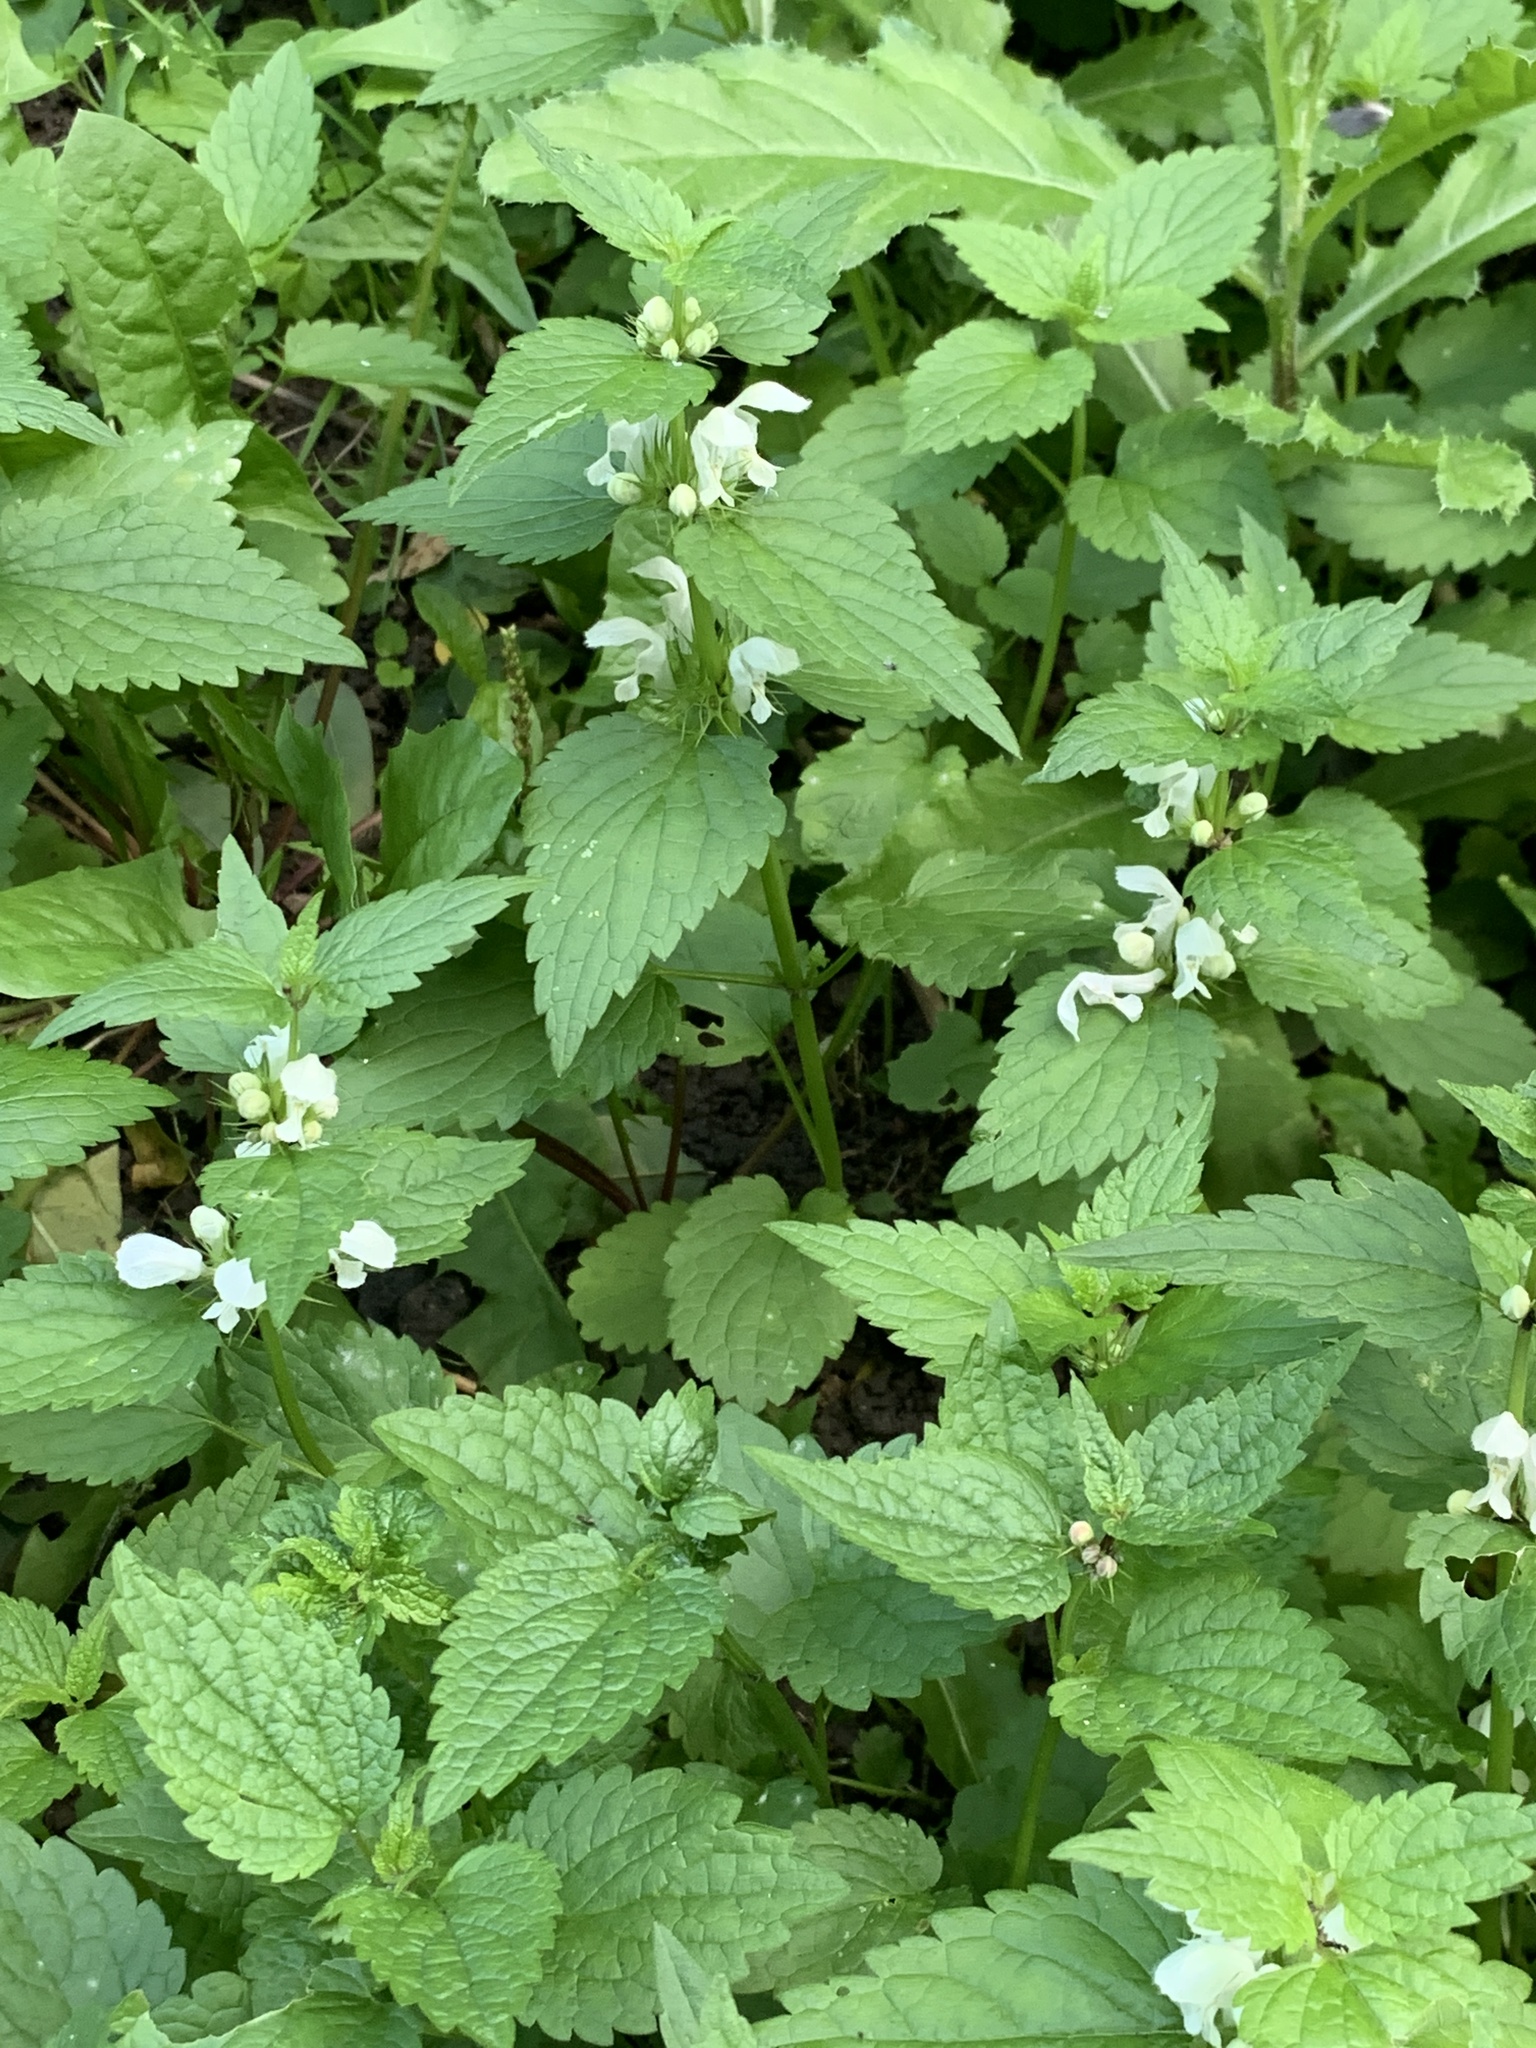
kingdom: Plantae
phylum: Tracheophyta
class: Magnoliopsida
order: Asterales
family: Asteraceae
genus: Galinsoga
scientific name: Galinsoga parviflora
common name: Gallant soldier
